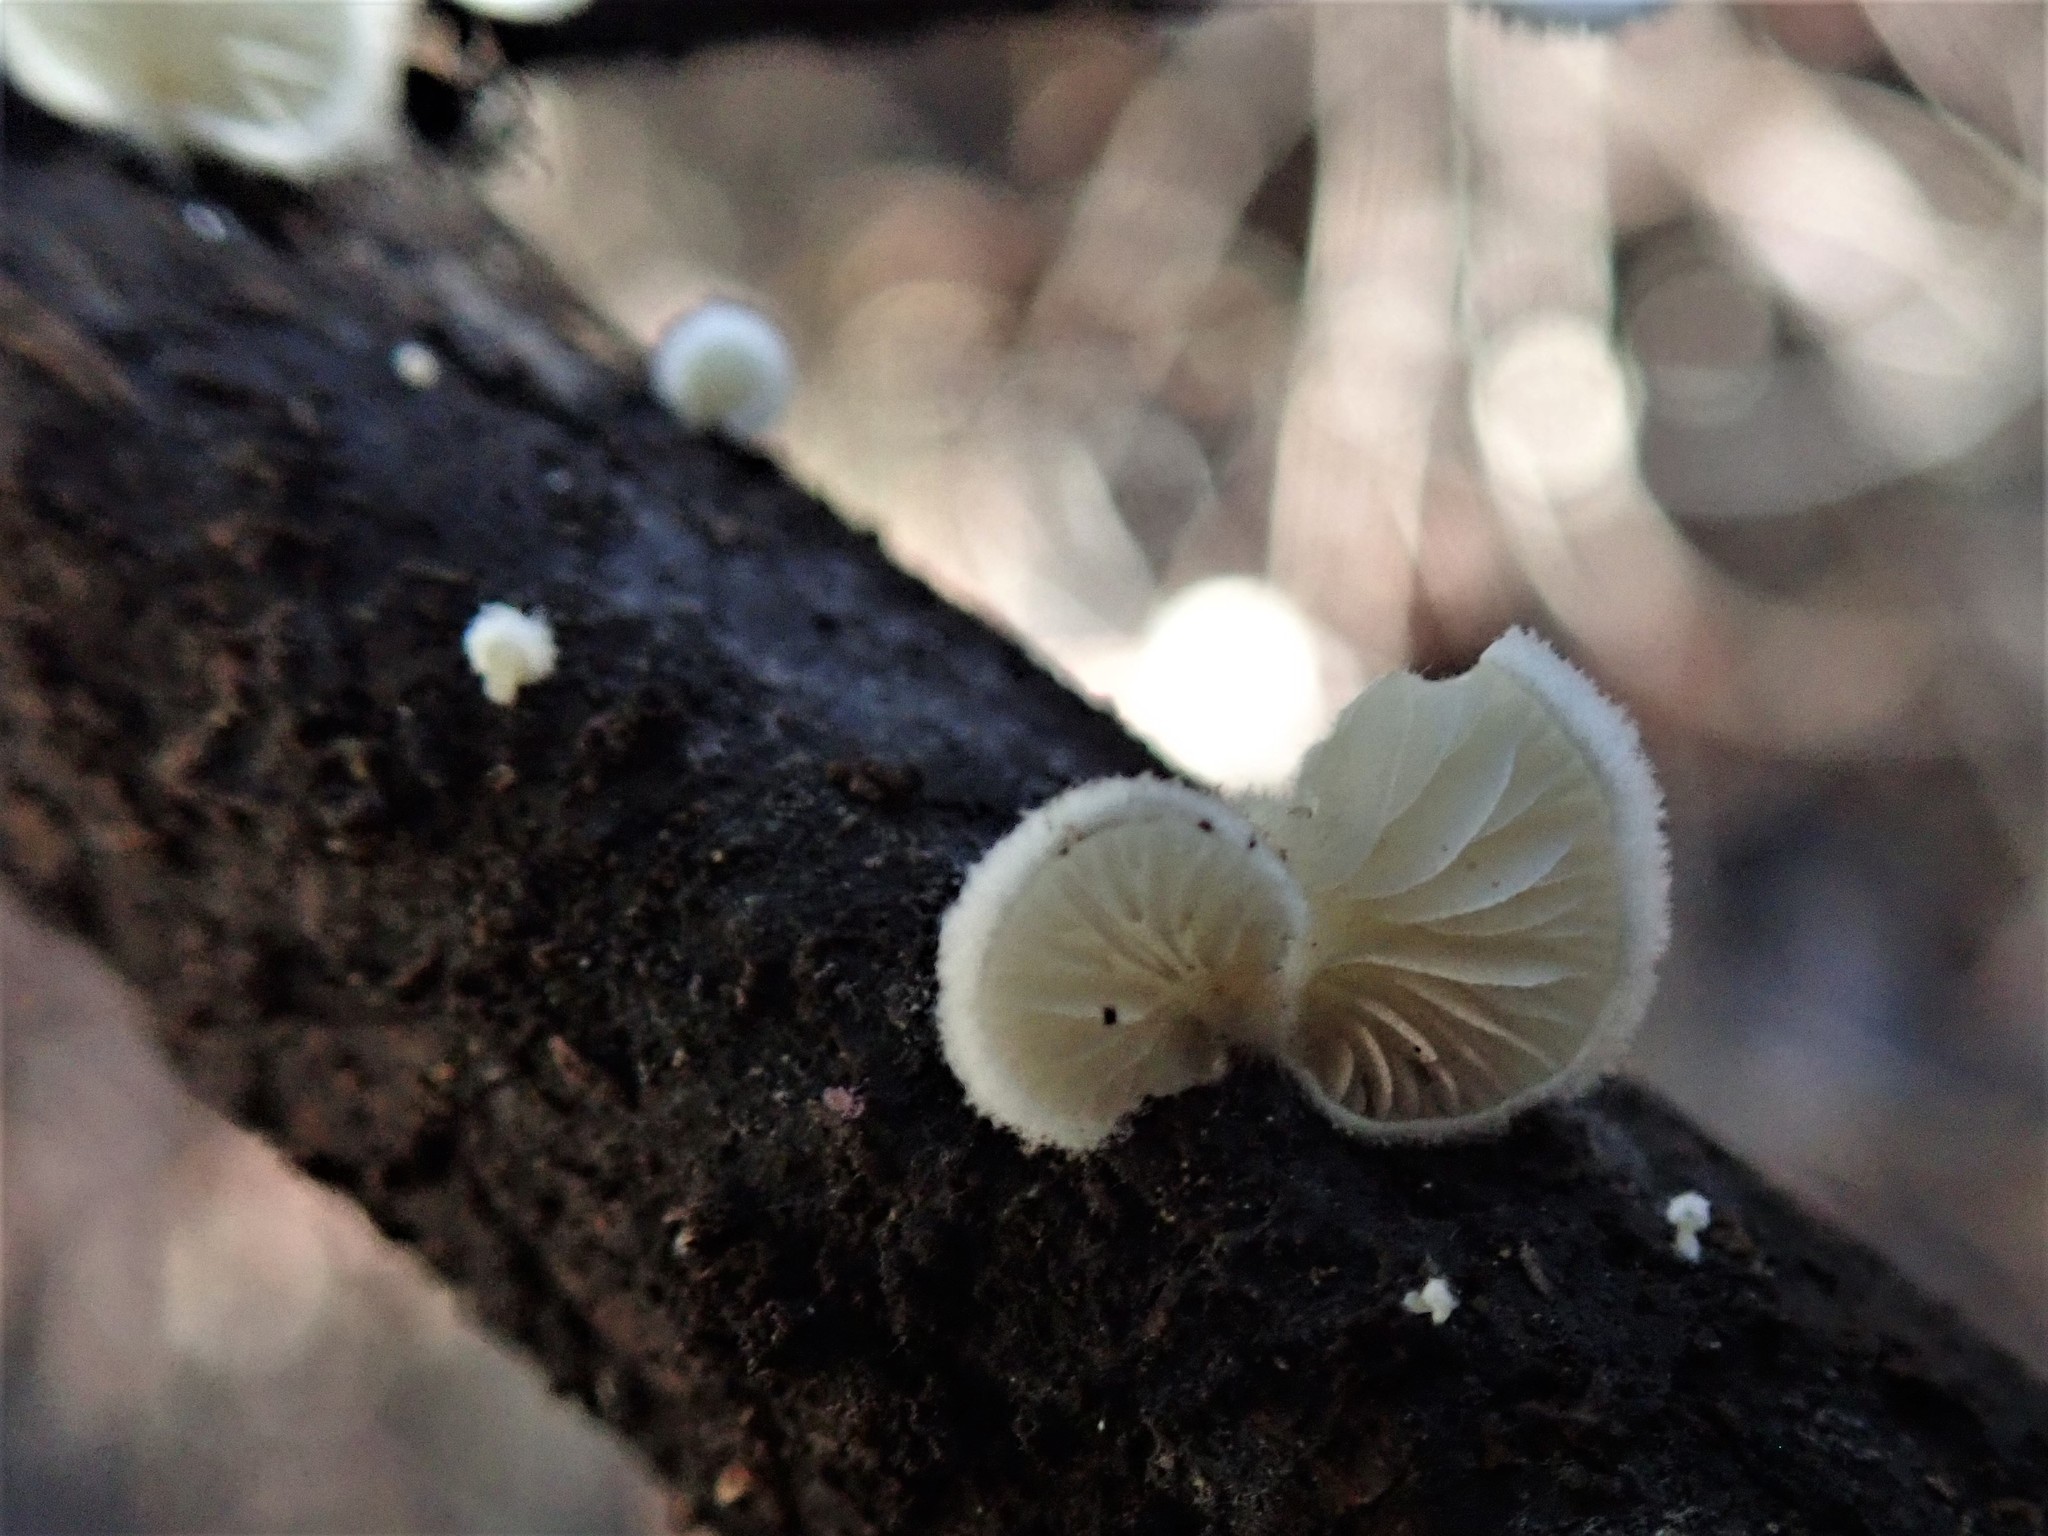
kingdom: Fungi
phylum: Basidiomycota
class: Agaricomycetes
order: Agaricales
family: Crepidotaceae
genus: Crepidotus
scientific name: Crepidotus mollis
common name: Peeling oysterling
